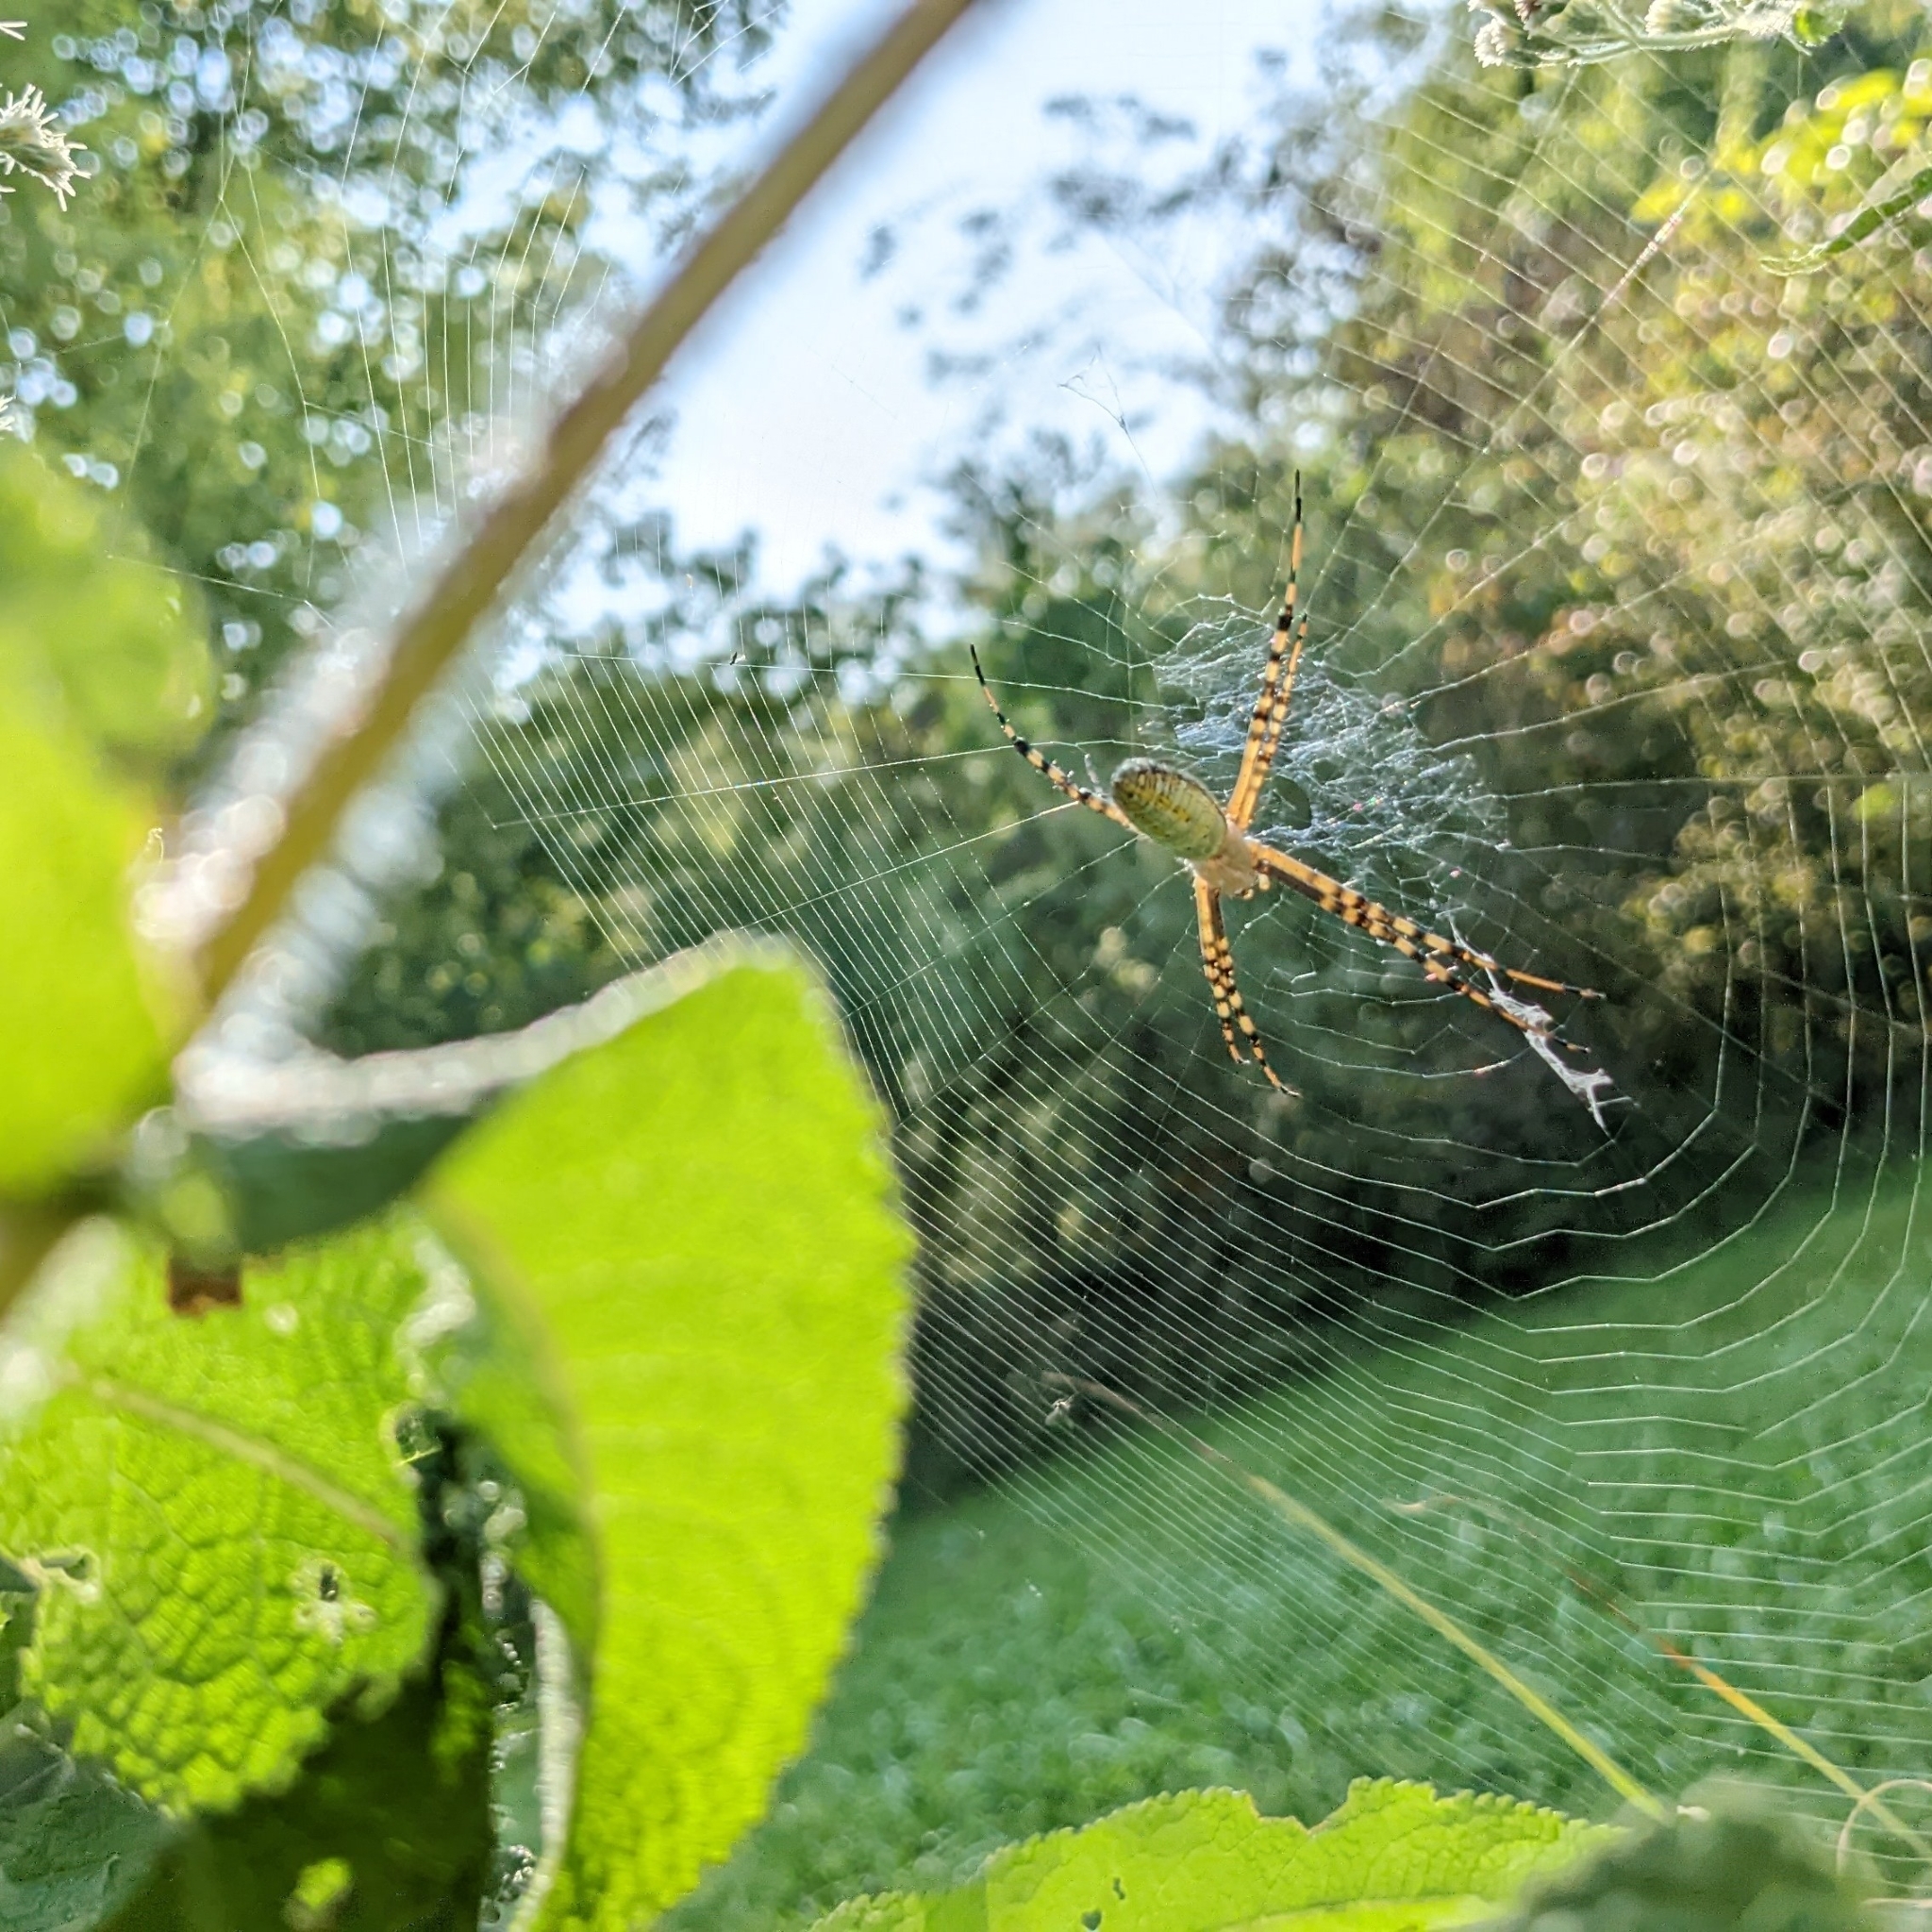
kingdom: Animalia
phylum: Arthropoda
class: Arachnida
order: Araneae
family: Araneidae
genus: Argiope
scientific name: Argiope trifasciata
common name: Banded garden spider
